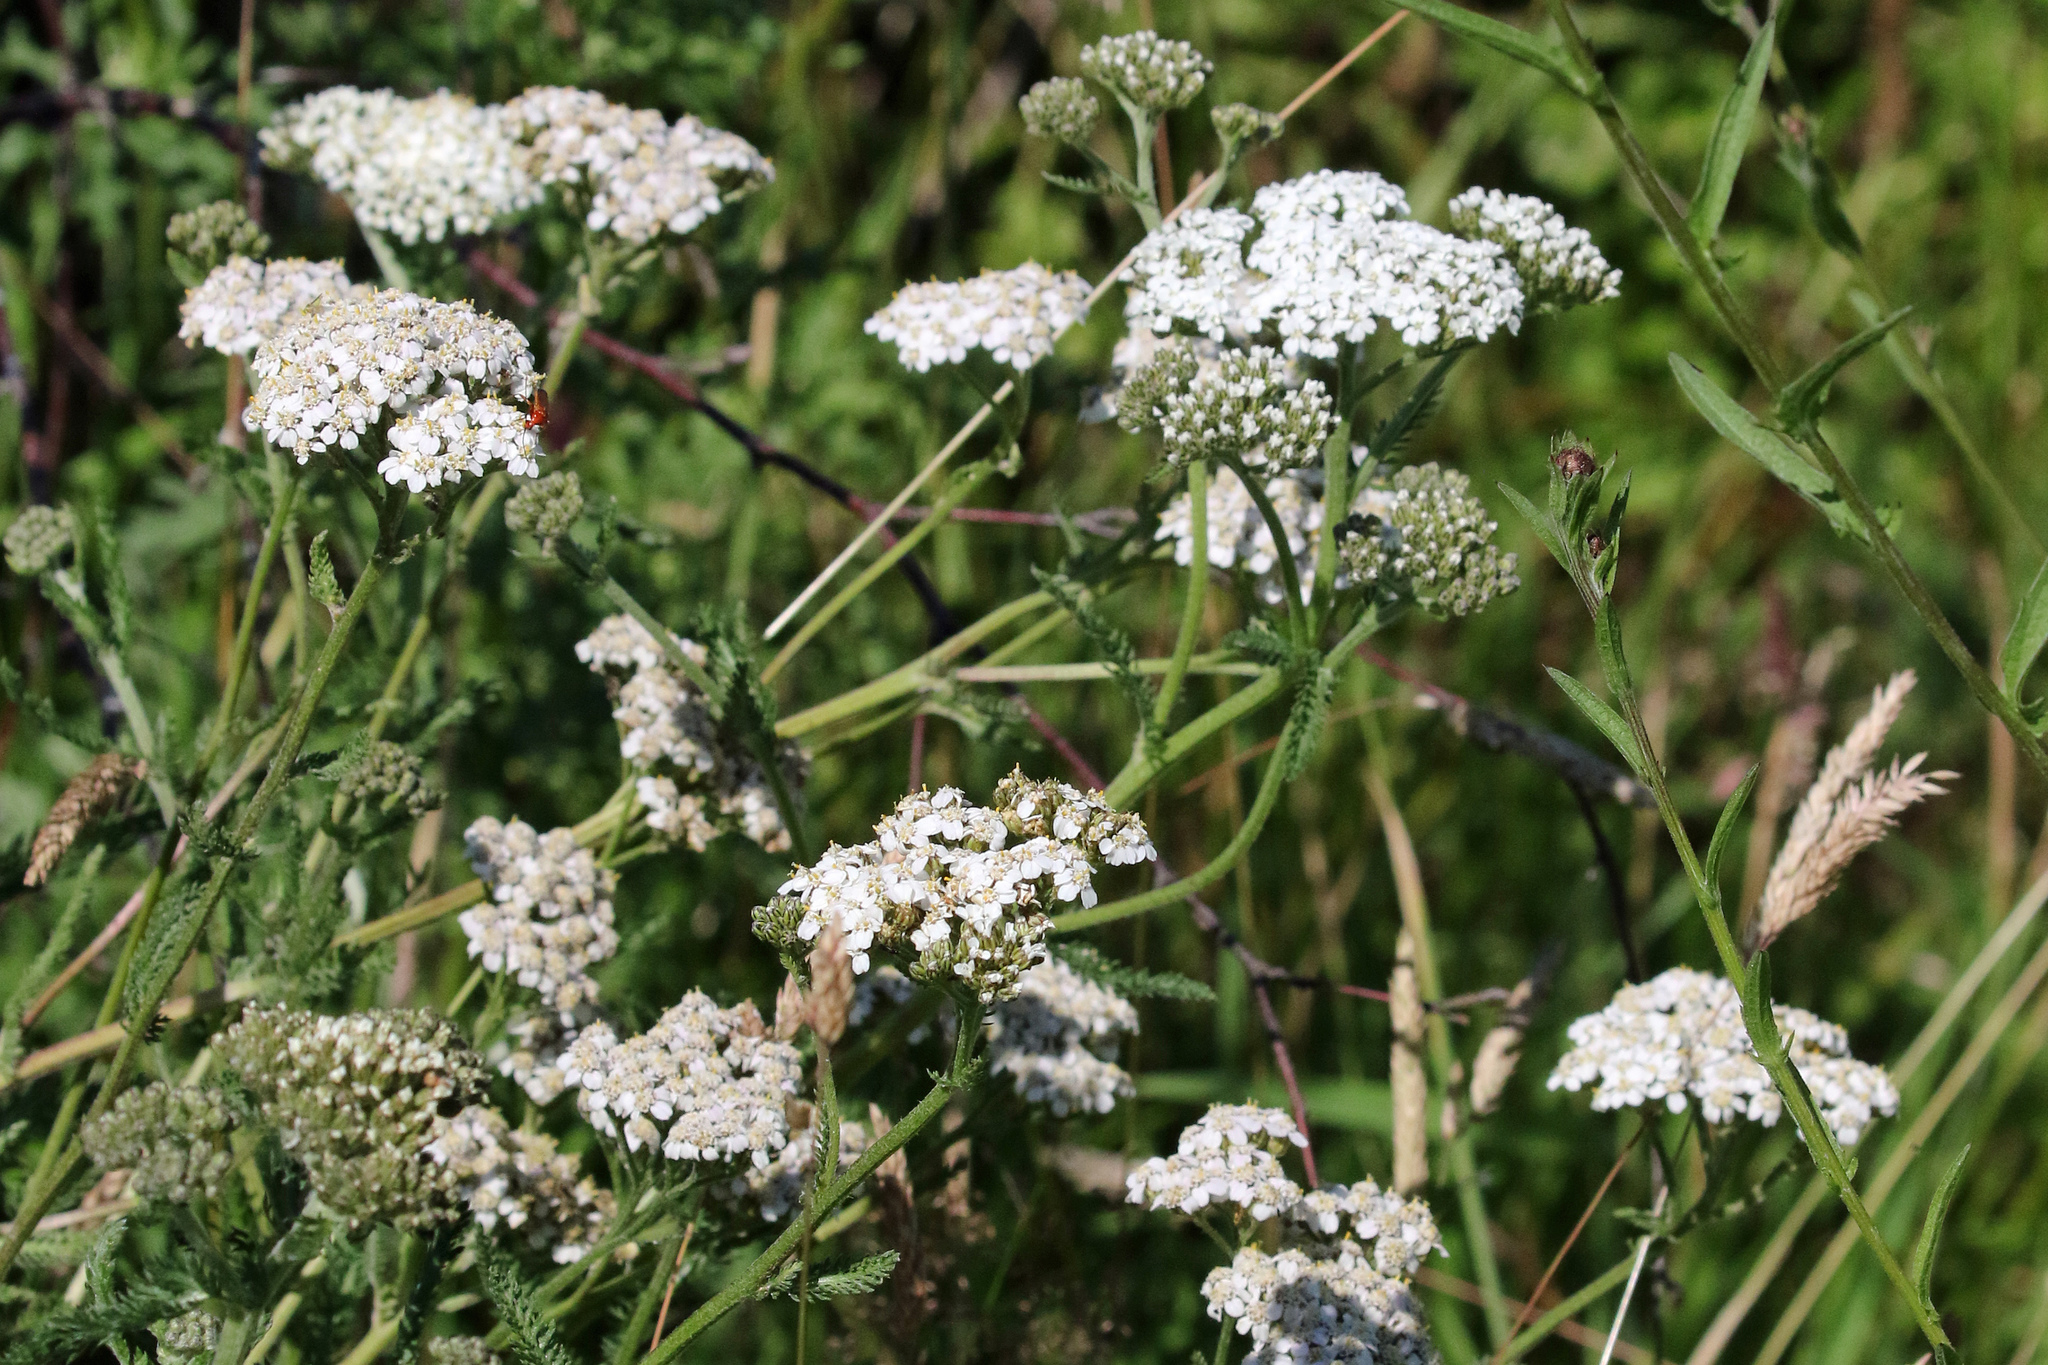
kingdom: Plantae
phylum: Tracheophyta
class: Magnoliopsida
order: Asterales
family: Asteraceae
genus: Achillea
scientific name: Achillea millefolium
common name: Yarrow
